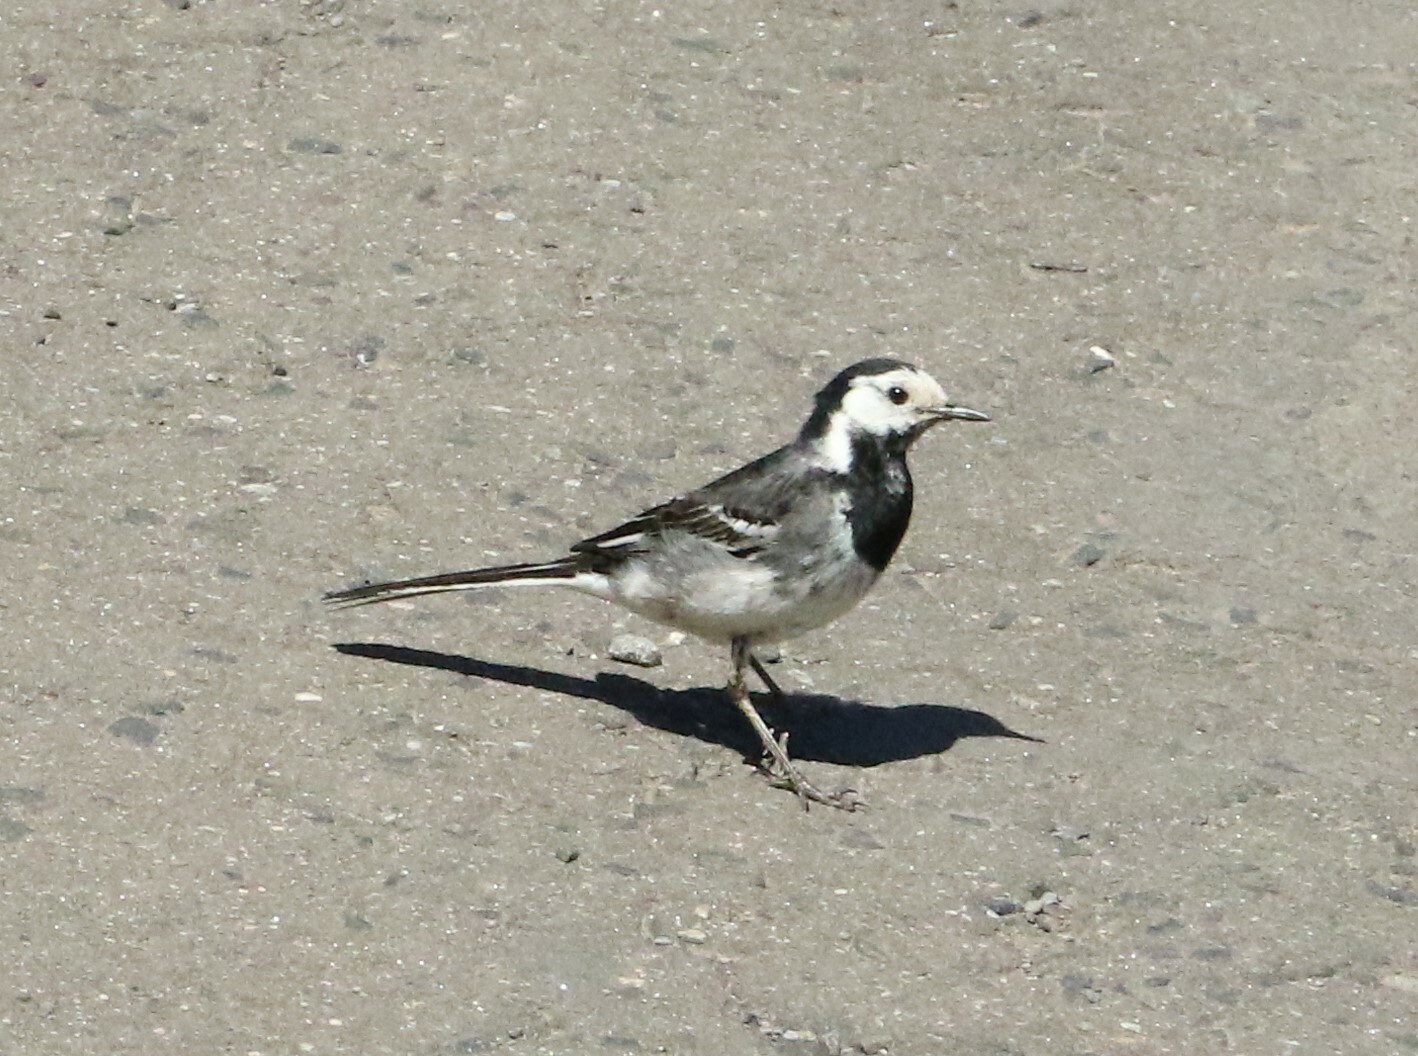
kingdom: Animalia
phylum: Chordata
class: Aves
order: Passeriformes
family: Motacillidae
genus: Motacilla
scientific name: Motacilla alba
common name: White wagtail
